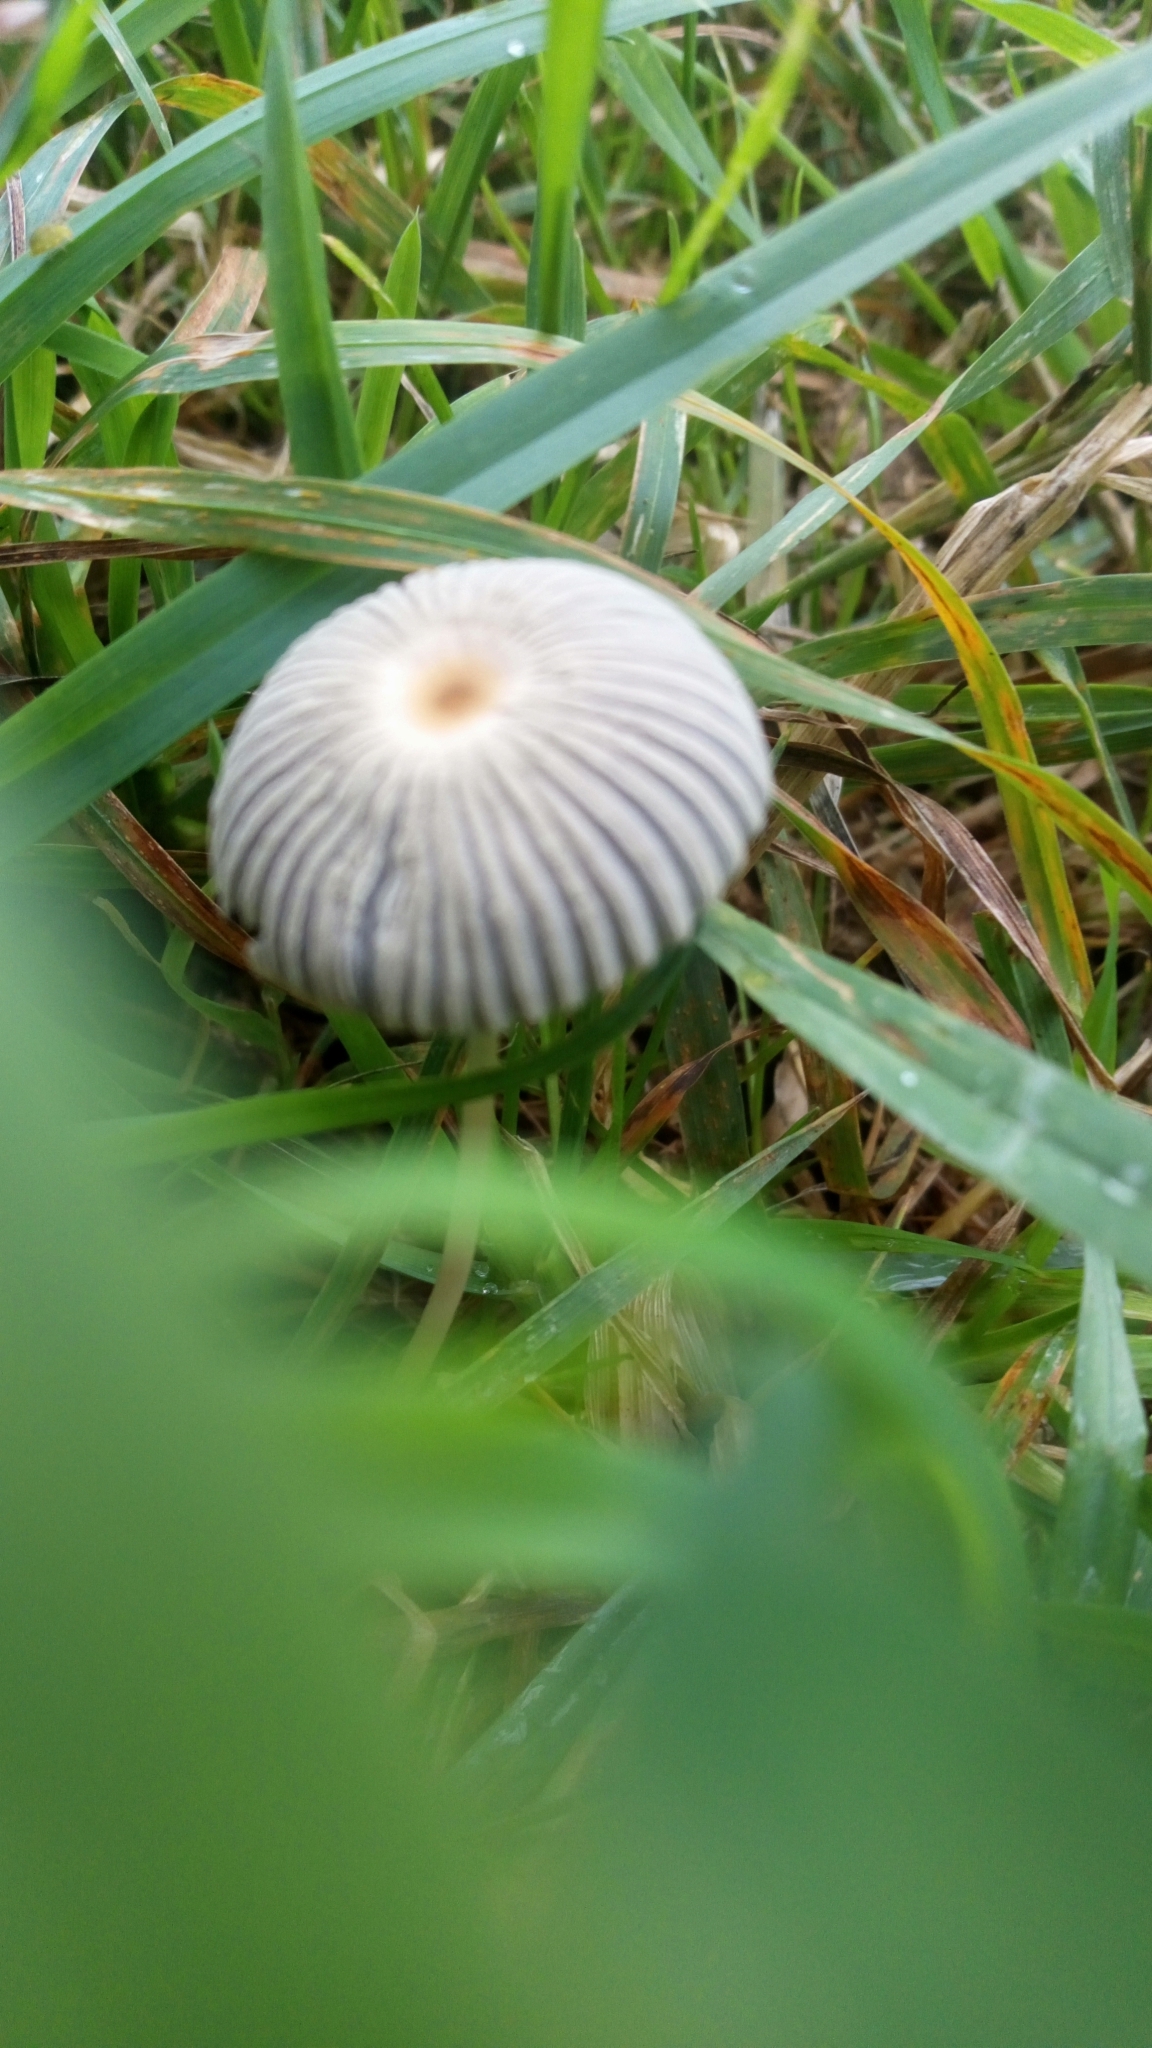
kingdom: Fungi
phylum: Basidiomycota
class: Agaricomycetes
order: Agaricales
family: Psathyrellaceae
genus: Parasola
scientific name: Parasola plicatilis
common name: Pleated inkcap
